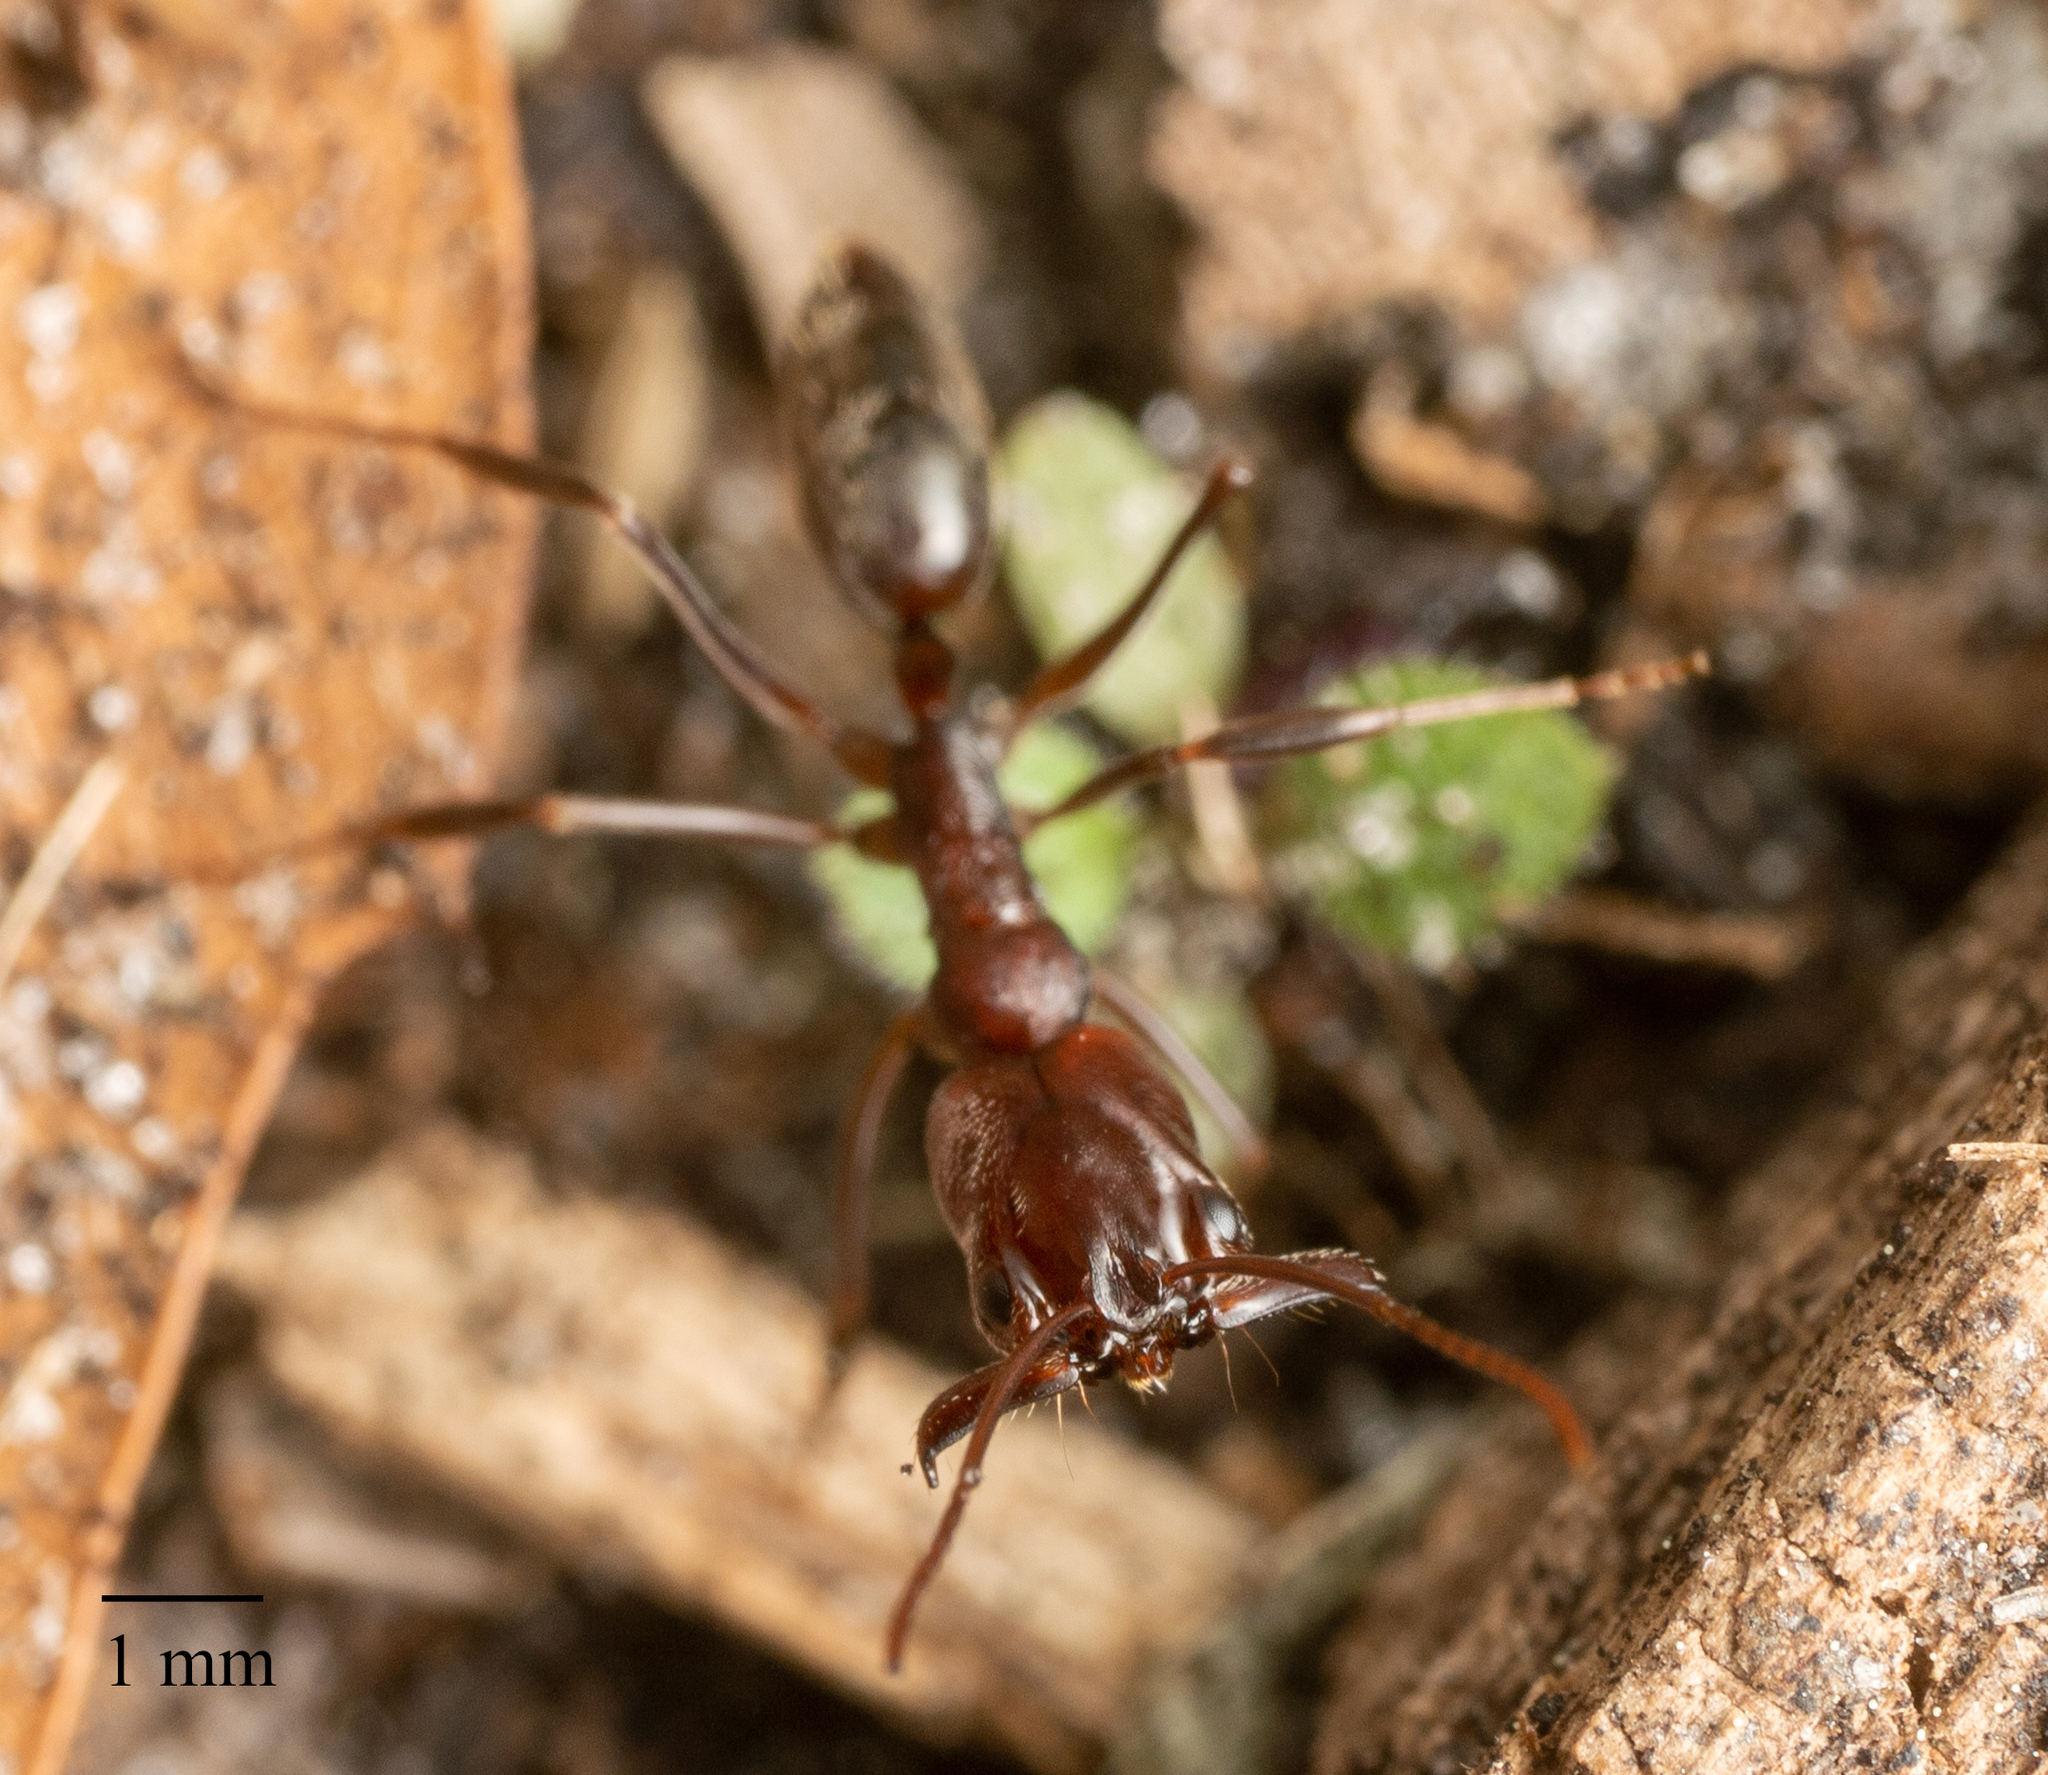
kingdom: Animalia
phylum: Arthropoda
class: Insecta
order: Hymenoptera
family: Formicidae
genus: Odontomachus
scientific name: Odontomachus brunneus
